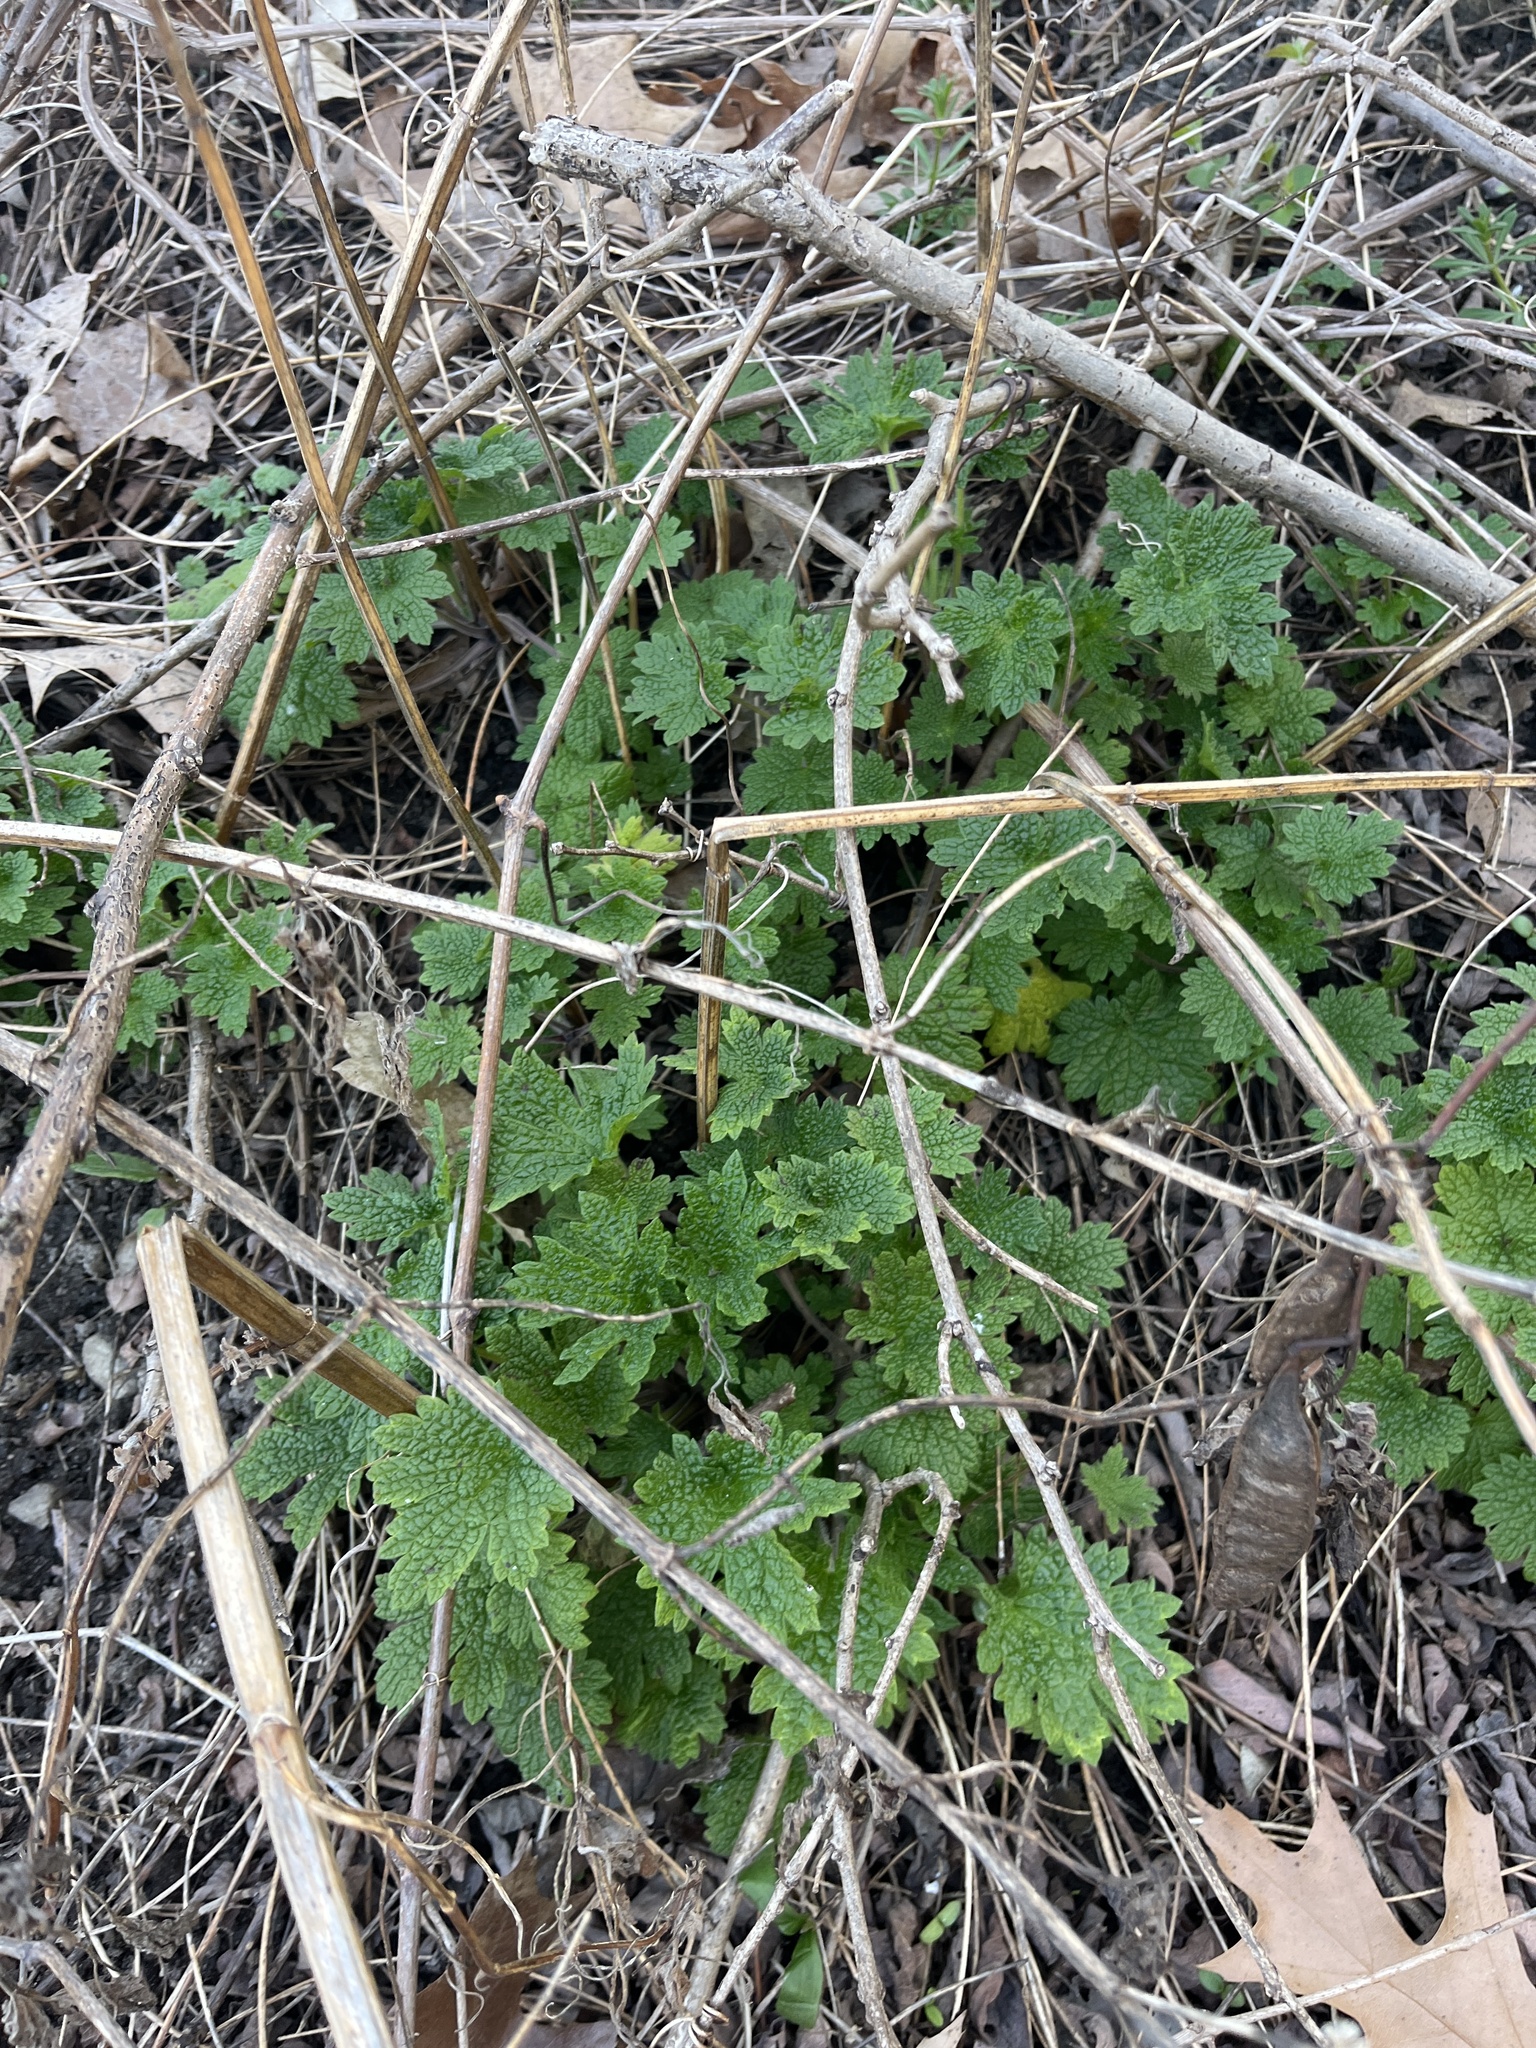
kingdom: Plantae
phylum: Tracheophyta
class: Magnoliopsida
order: Lamiales
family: Lamiaceae
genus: Leonurus
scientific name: Leonurus cardiaca
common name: Motherwort
